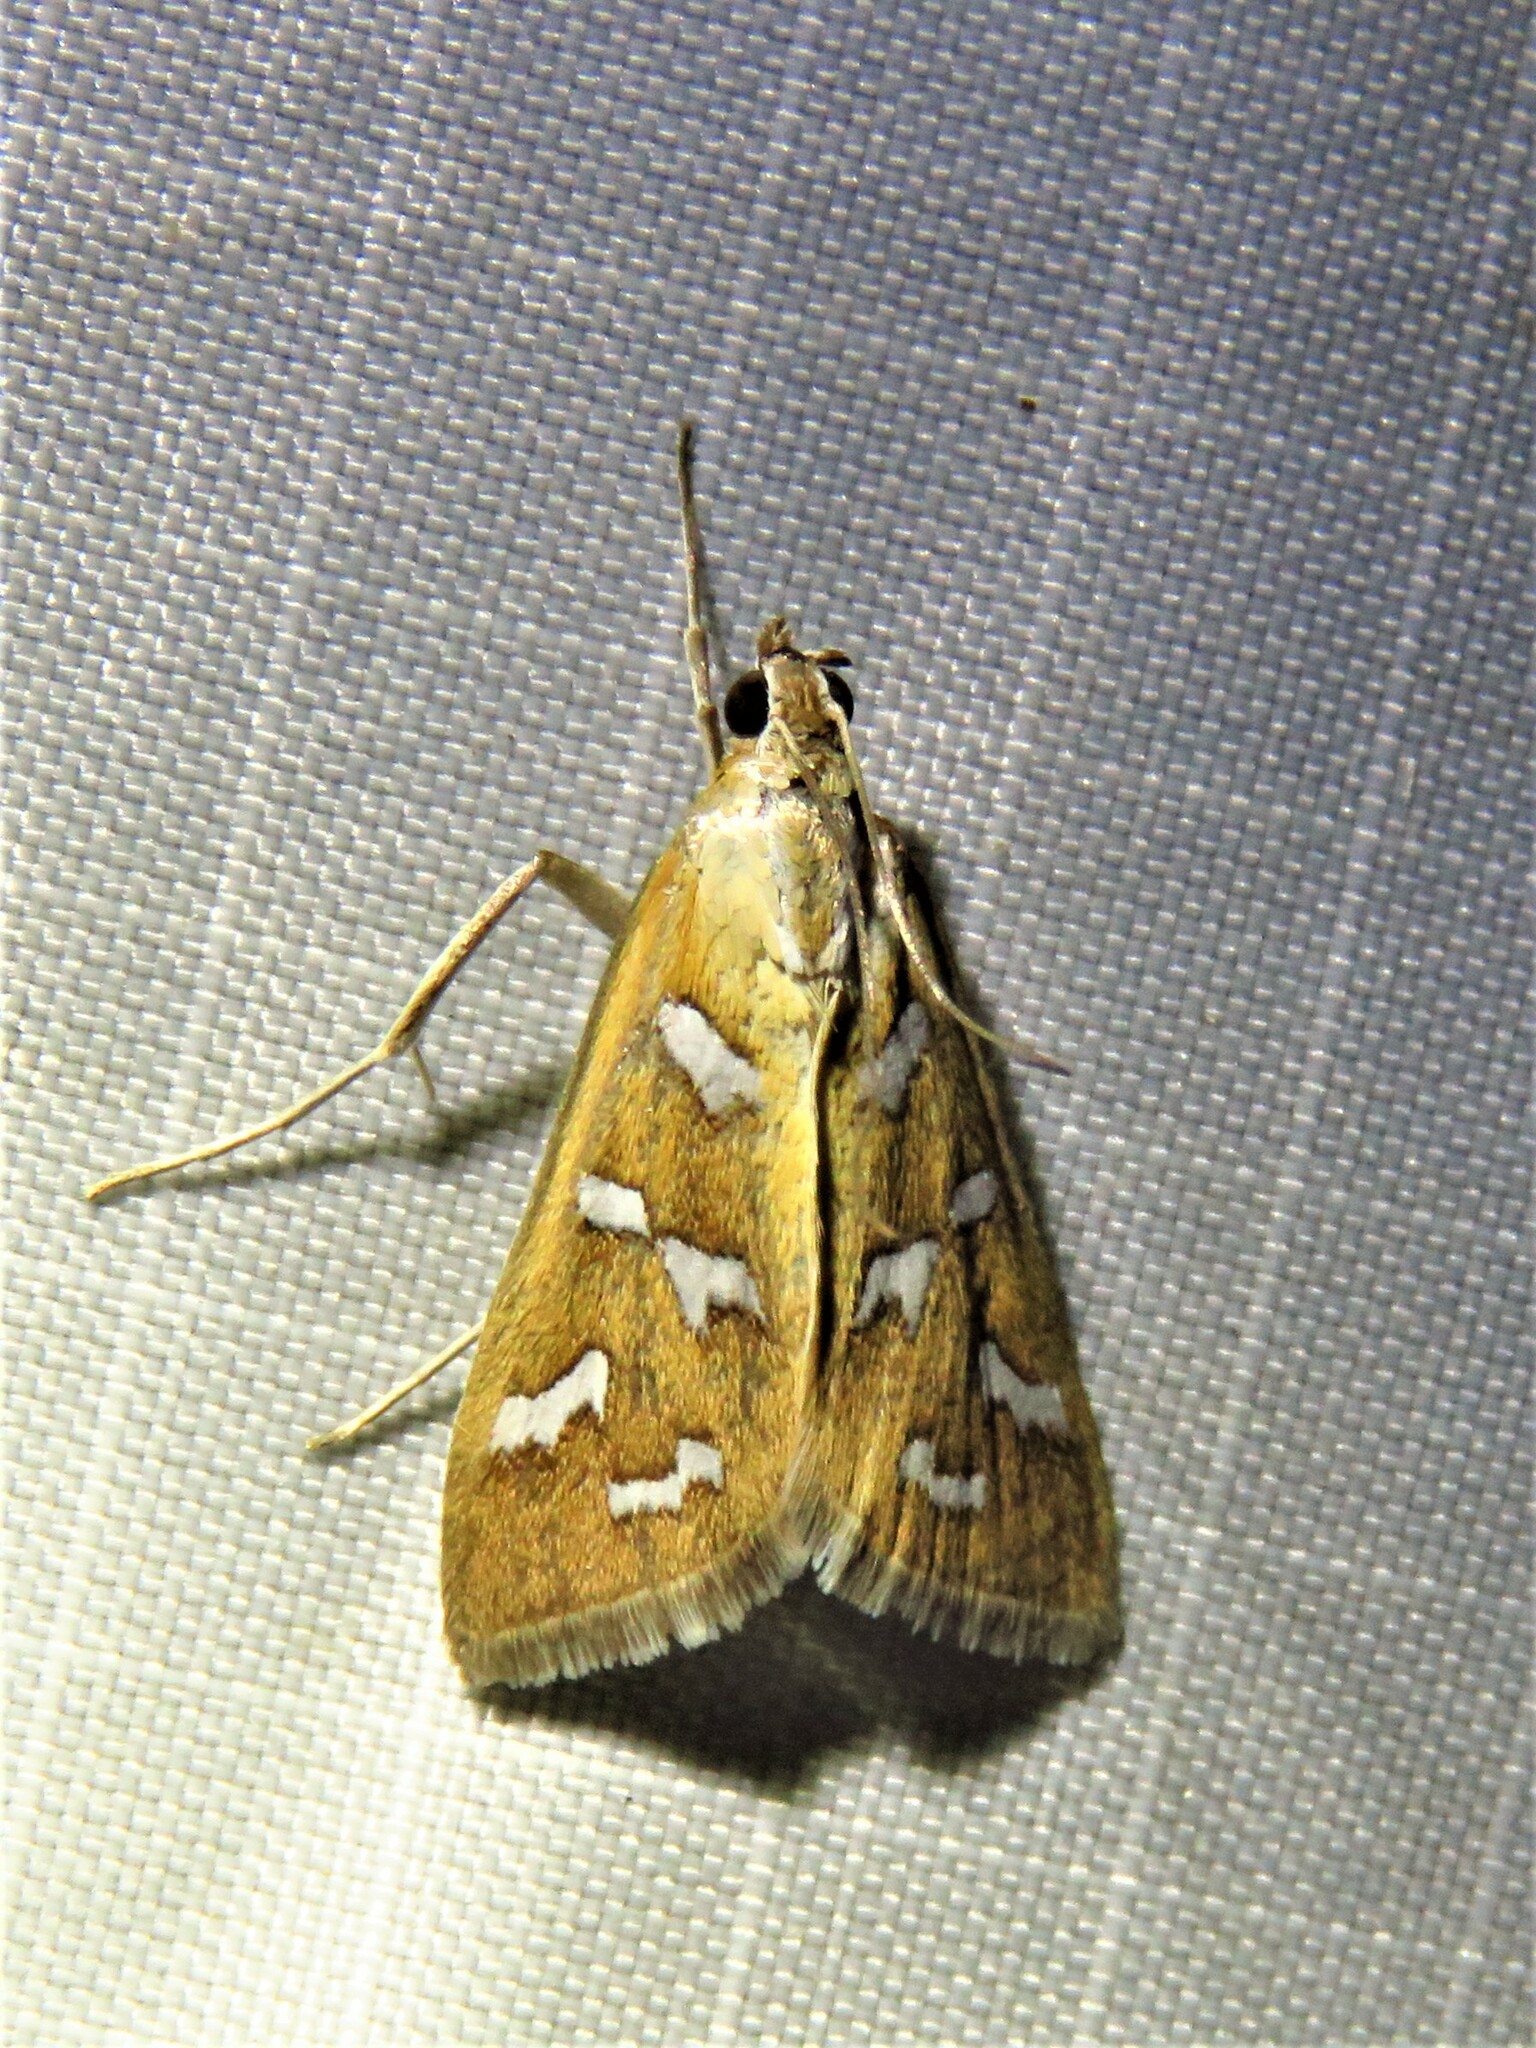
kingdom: Animalia
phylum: Arthropoda
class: Insecta
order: Lepidoptera
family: Crambidae
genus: Diastictis
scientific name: Diastictis fracturalis
